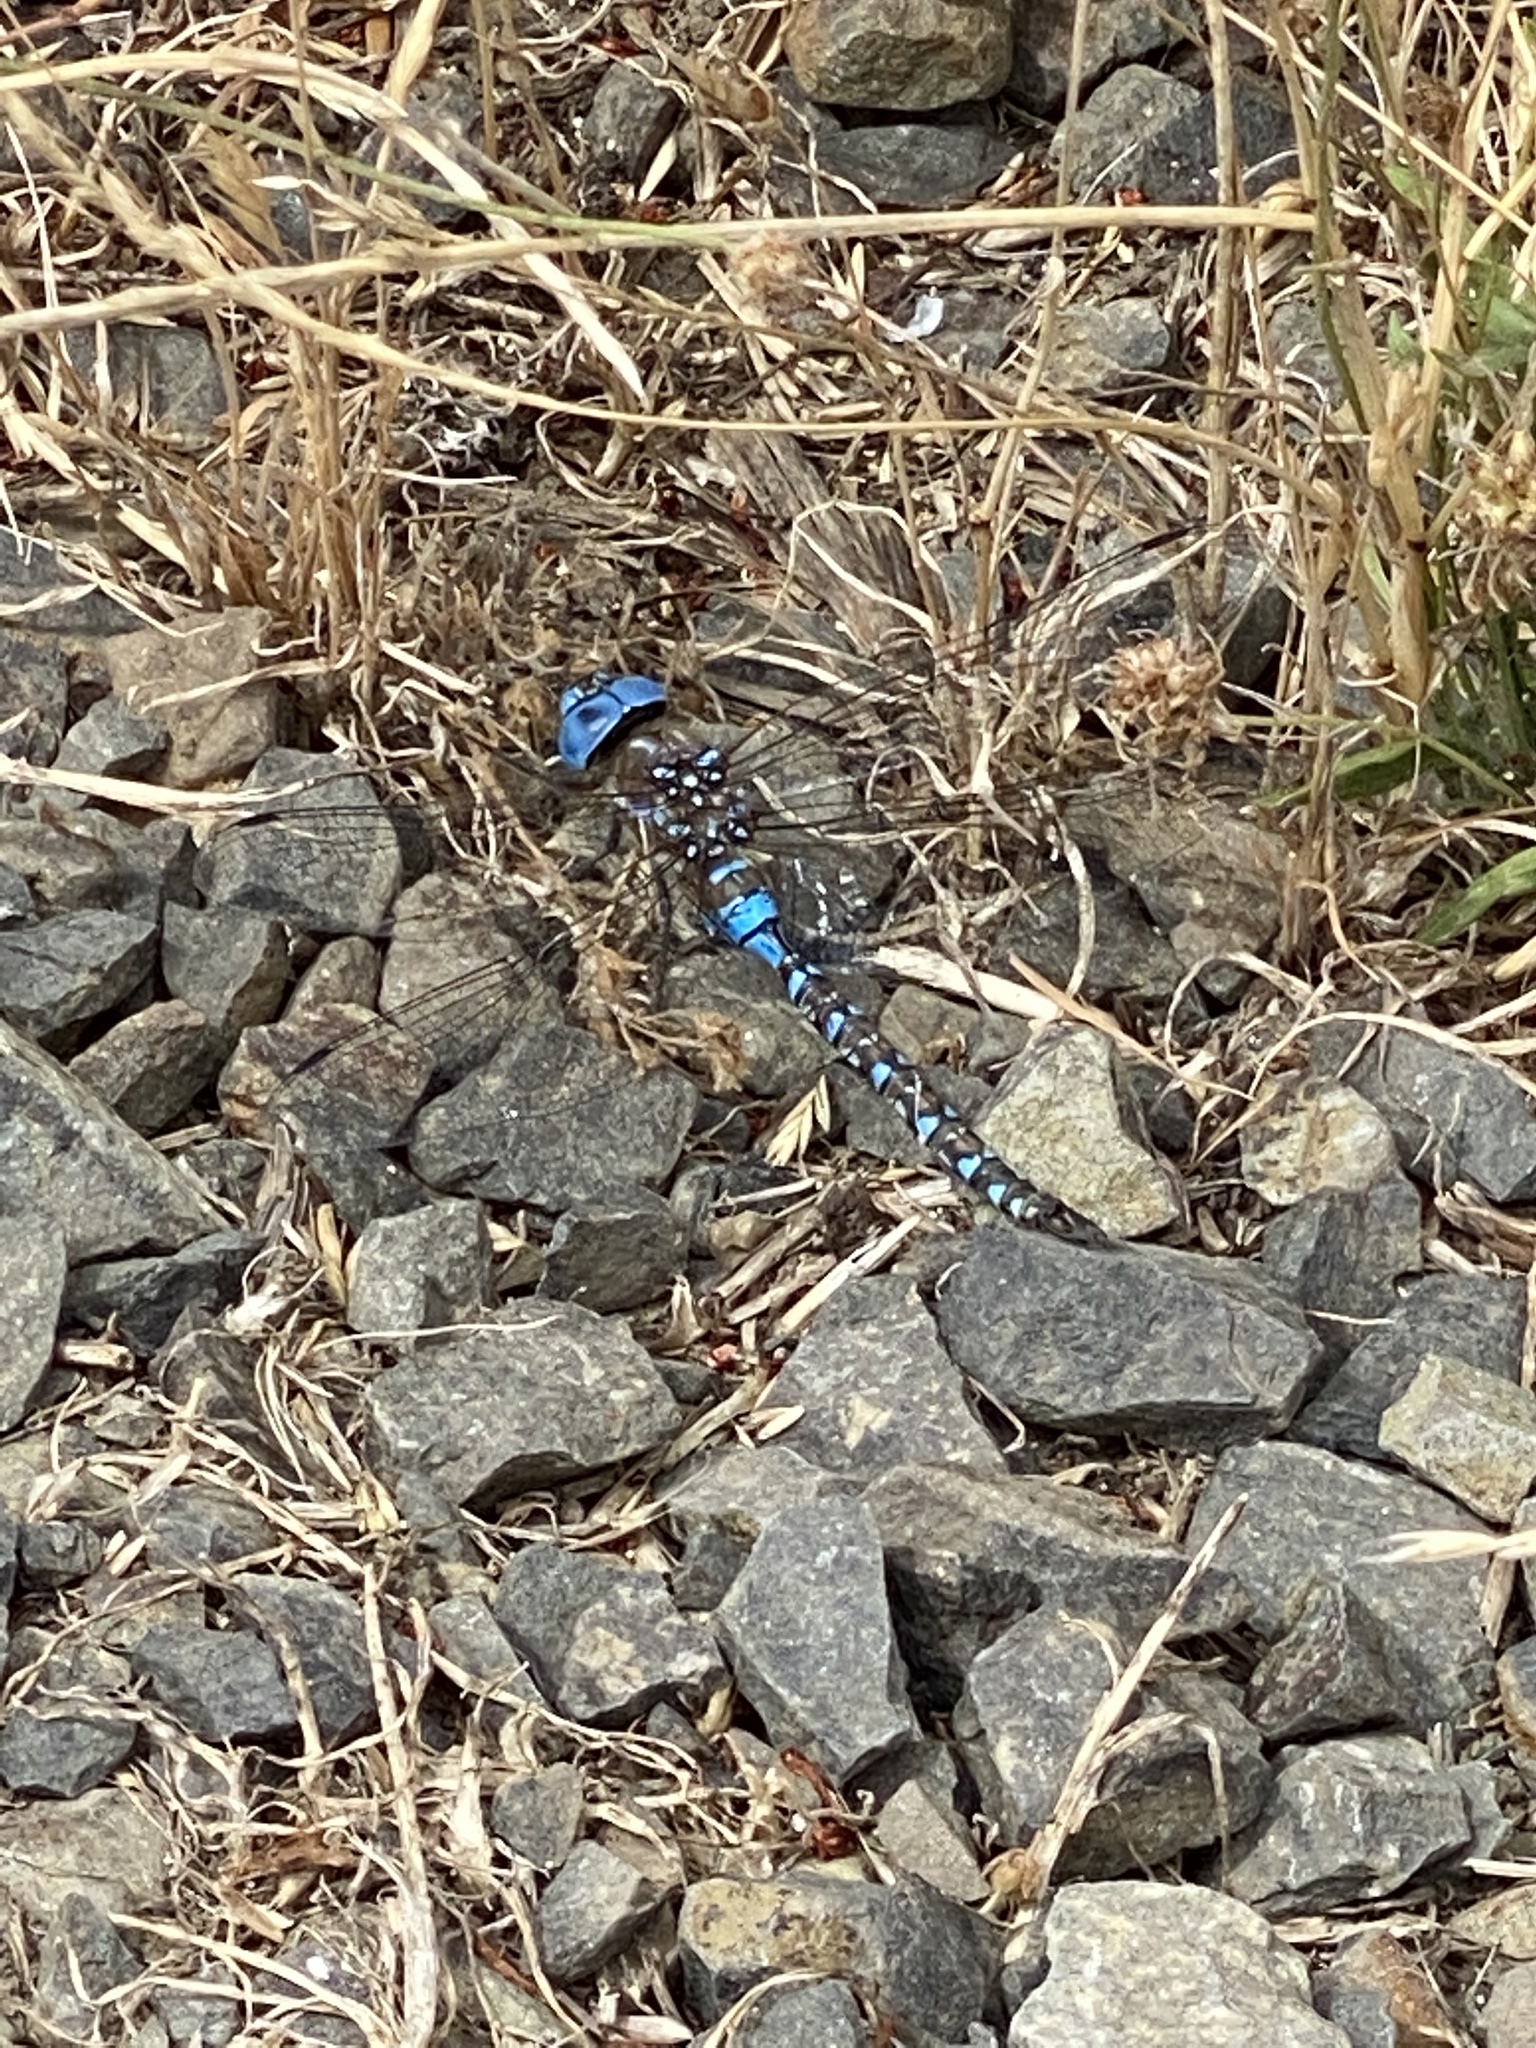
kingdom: Animalia
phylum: Arthropoda
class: Insecta
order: Odonata
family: Aeshnidae
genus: Rhionaeschna
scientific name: Rhionaeschna multicolor
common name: Blue-eyed darner
